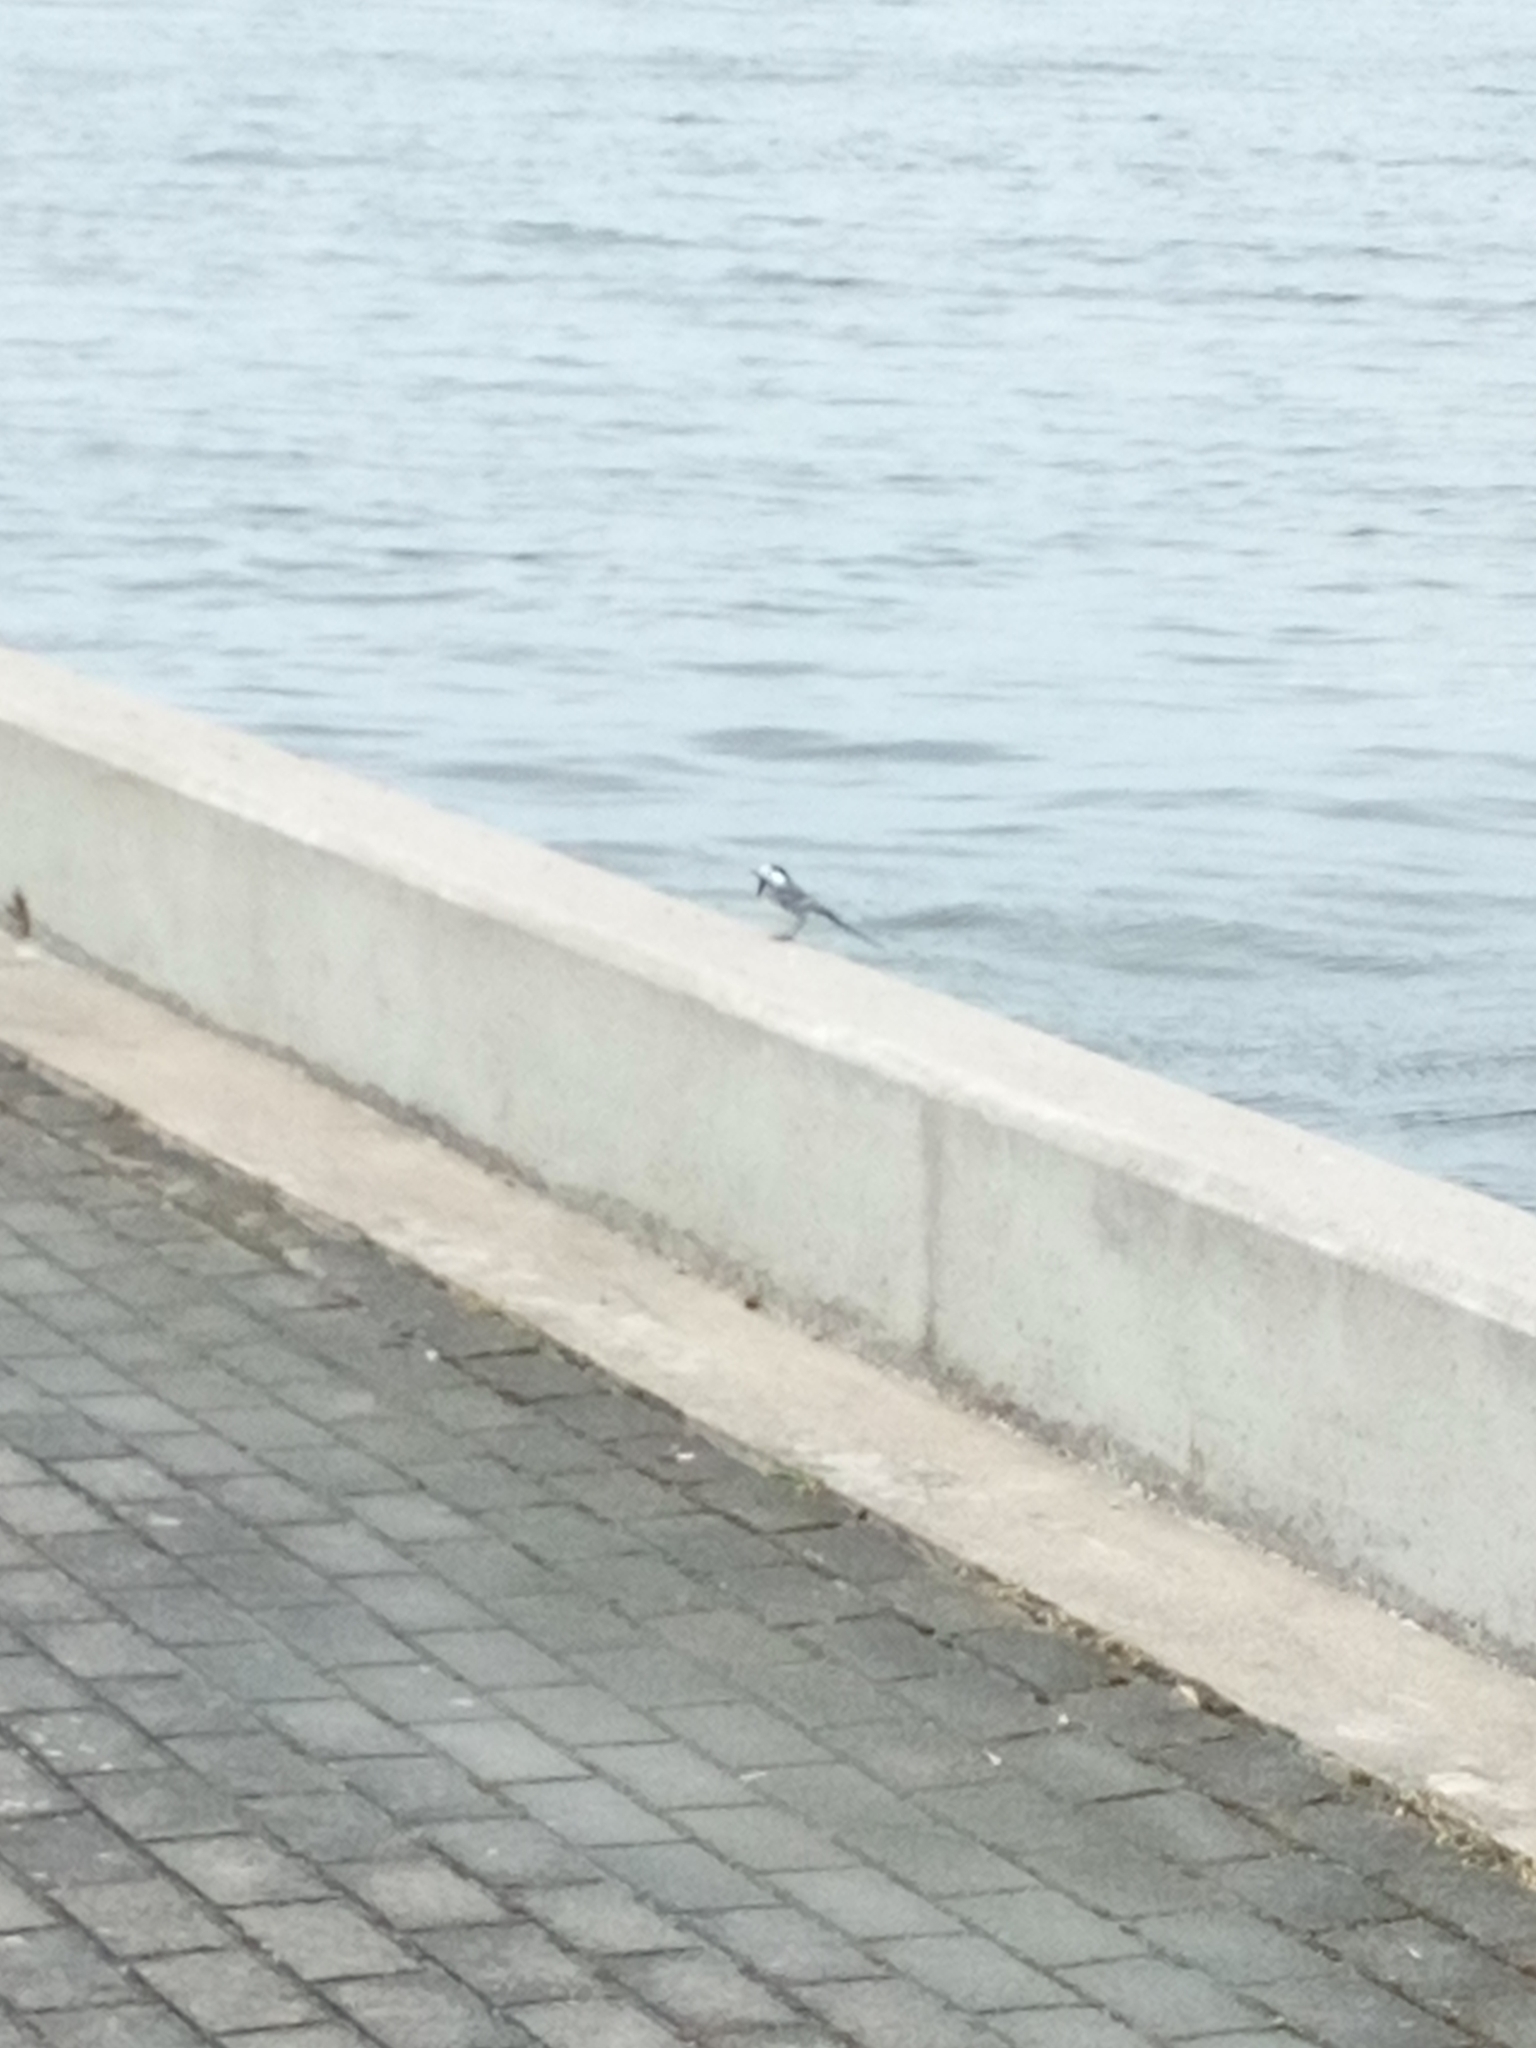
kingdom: Animalia
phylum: Chordata
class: Aves
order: Passeriformes
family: Motacillidae
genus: Motacilla
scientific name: Motacilla alba
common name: White wagtail
